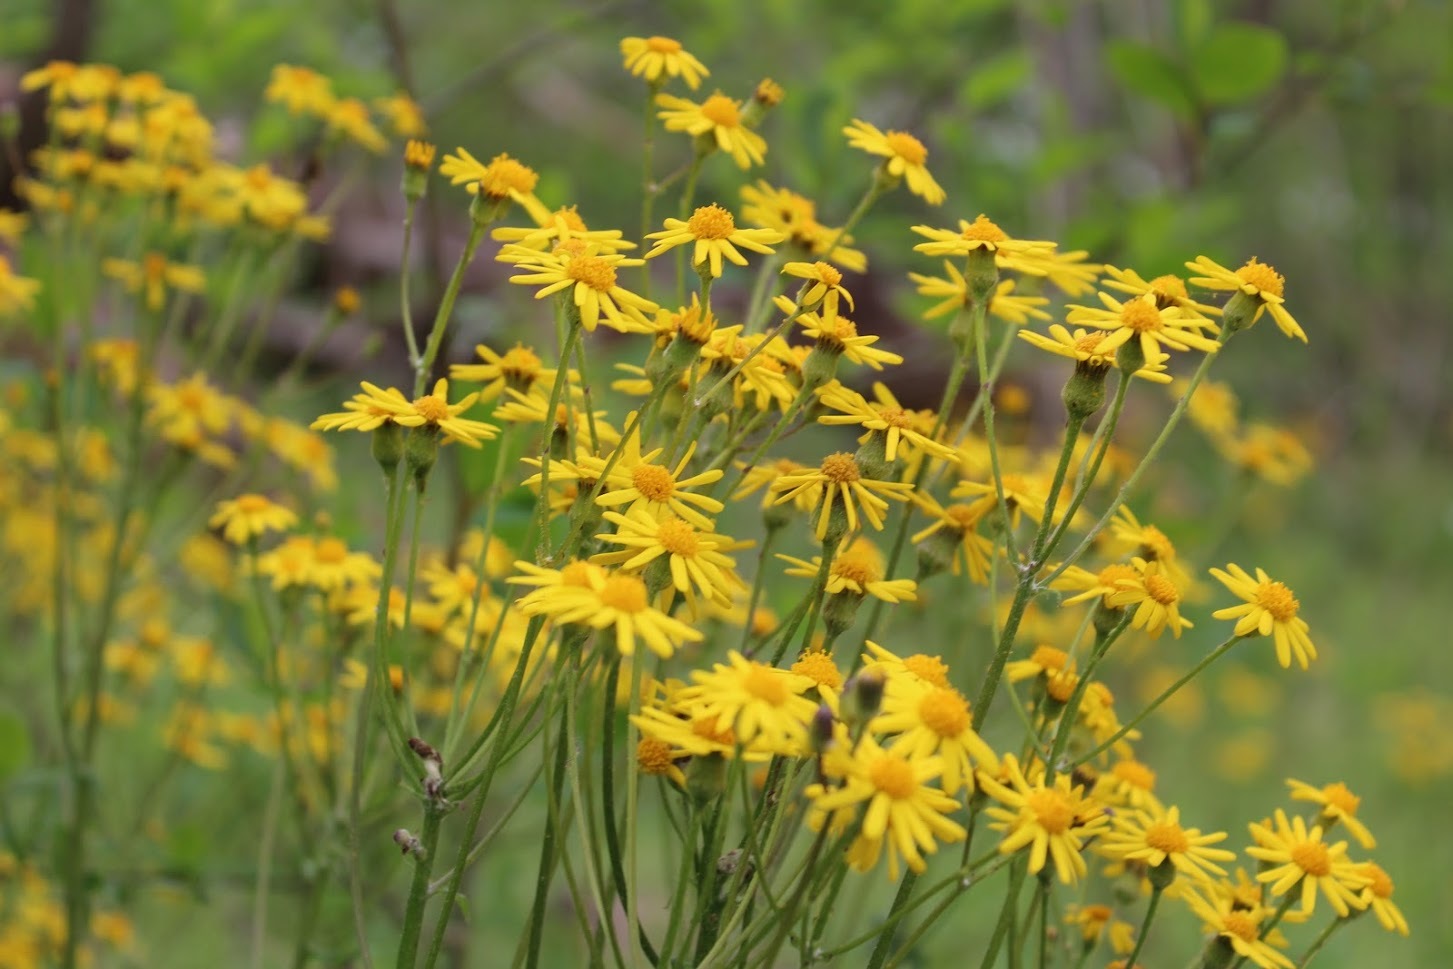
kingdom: Plantae
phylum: Tracheophyta
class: Magnoliopsida
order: Asterales
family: Asteraceae
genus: Packera
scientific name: Packera aurea
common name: Golden groundsel
